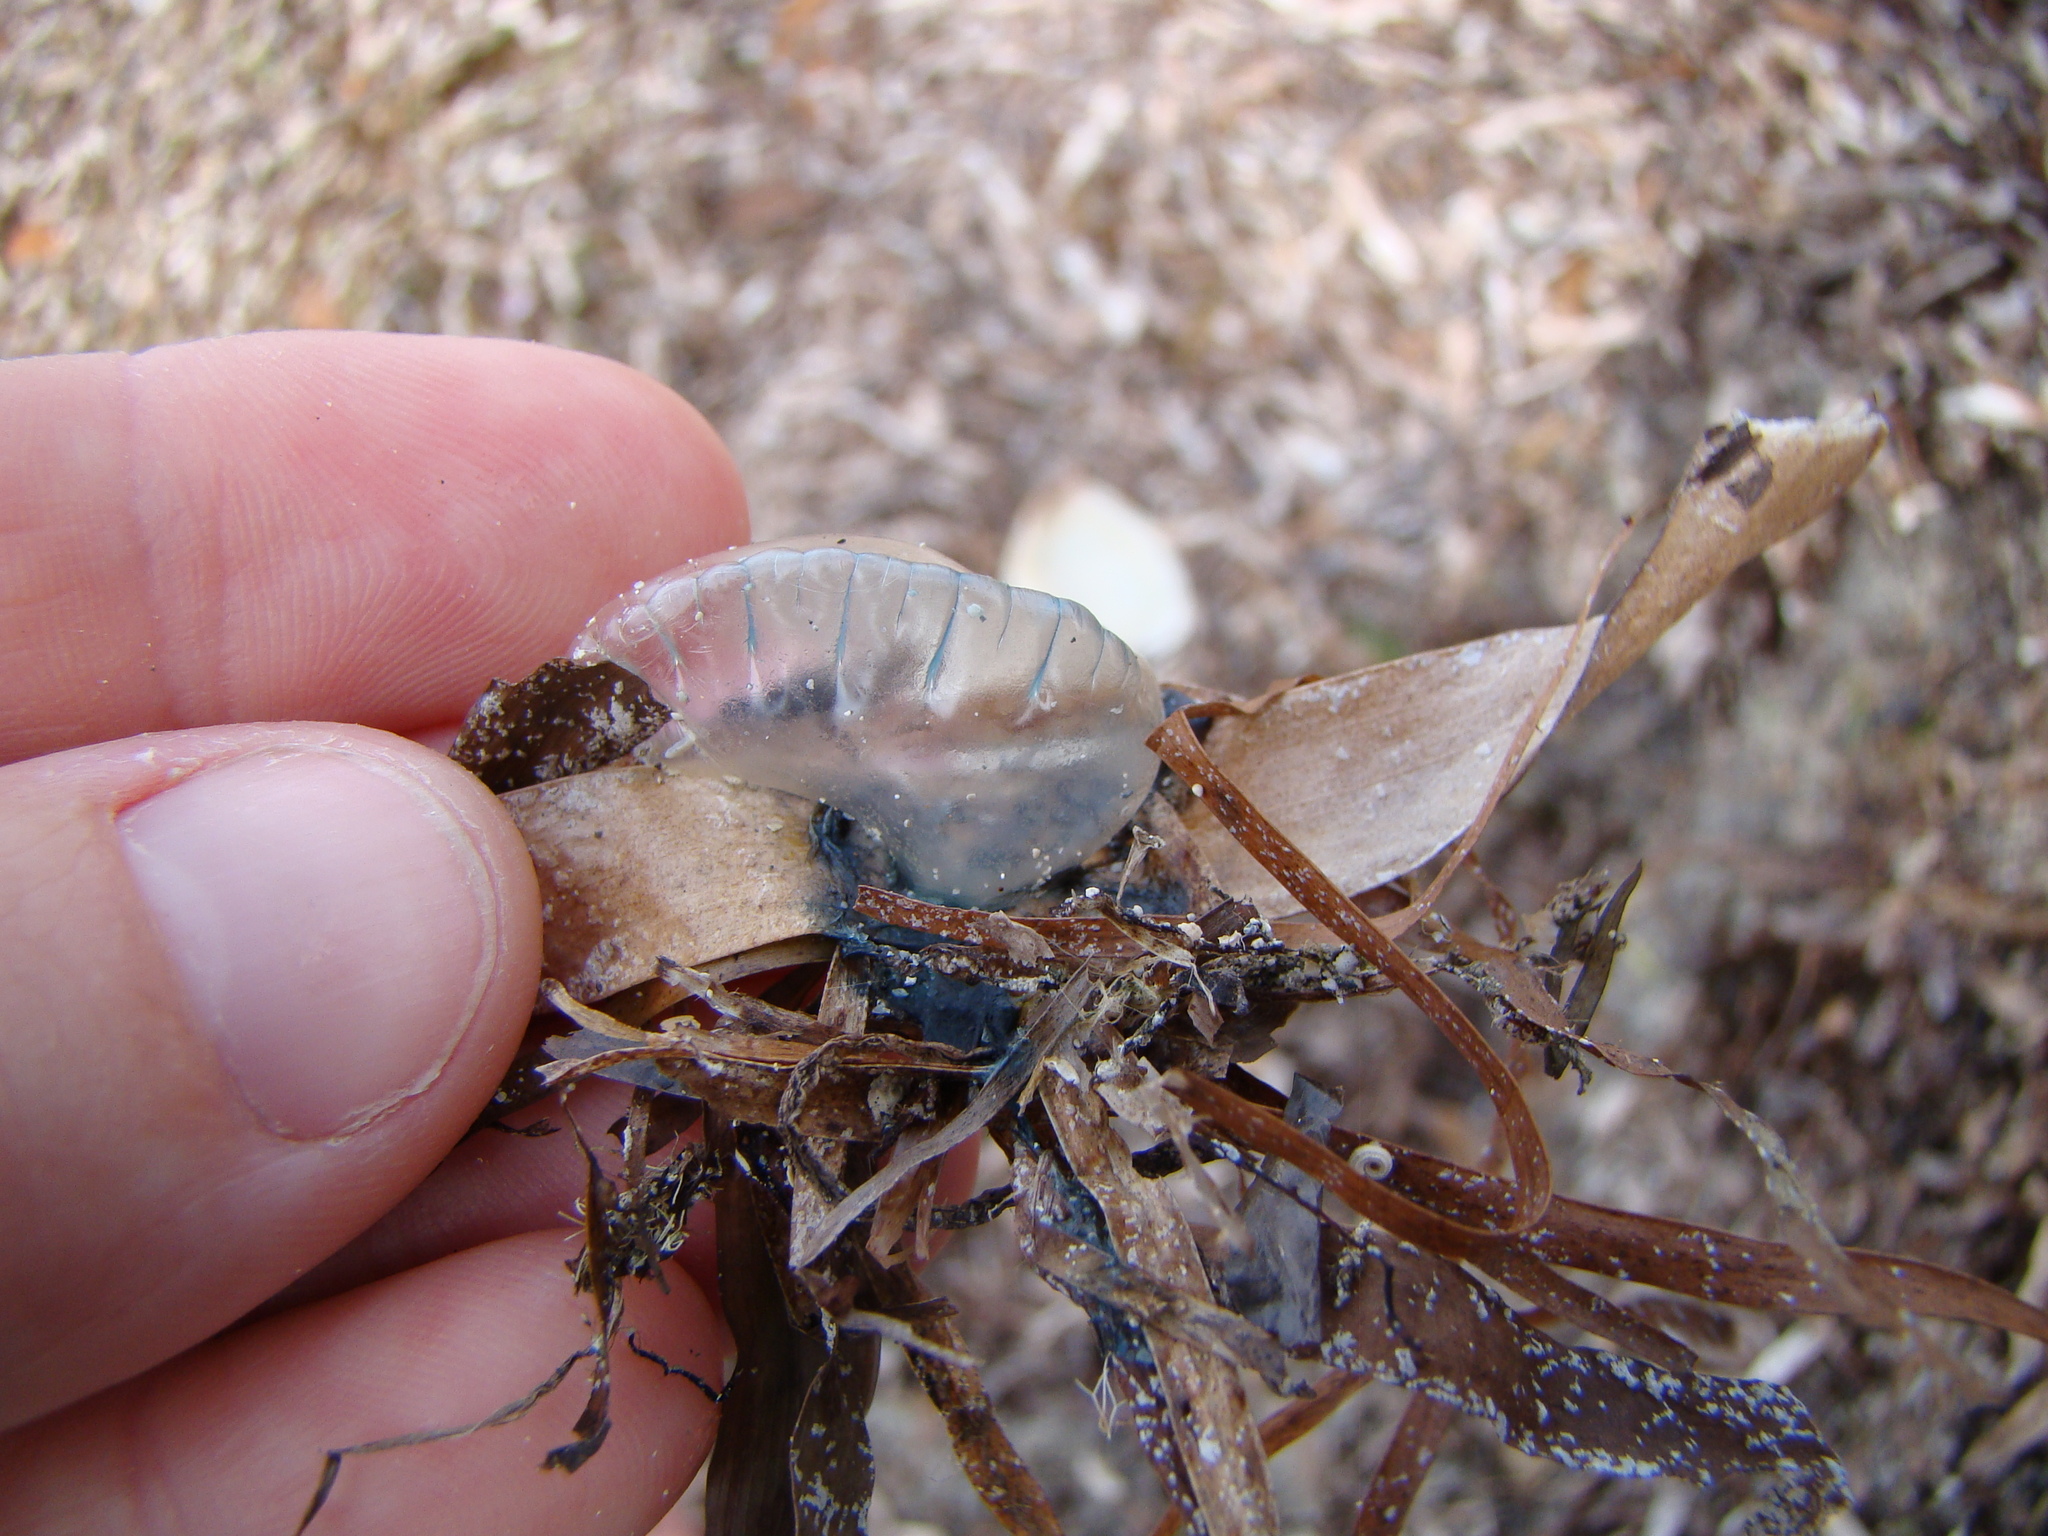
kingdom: Animalia
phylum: Cnidaria
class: Hydrozoa
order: Siphonophorae
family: Physaliidae
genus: Physalia
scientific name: Physalia physalis
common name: Portuguese man-of-war
